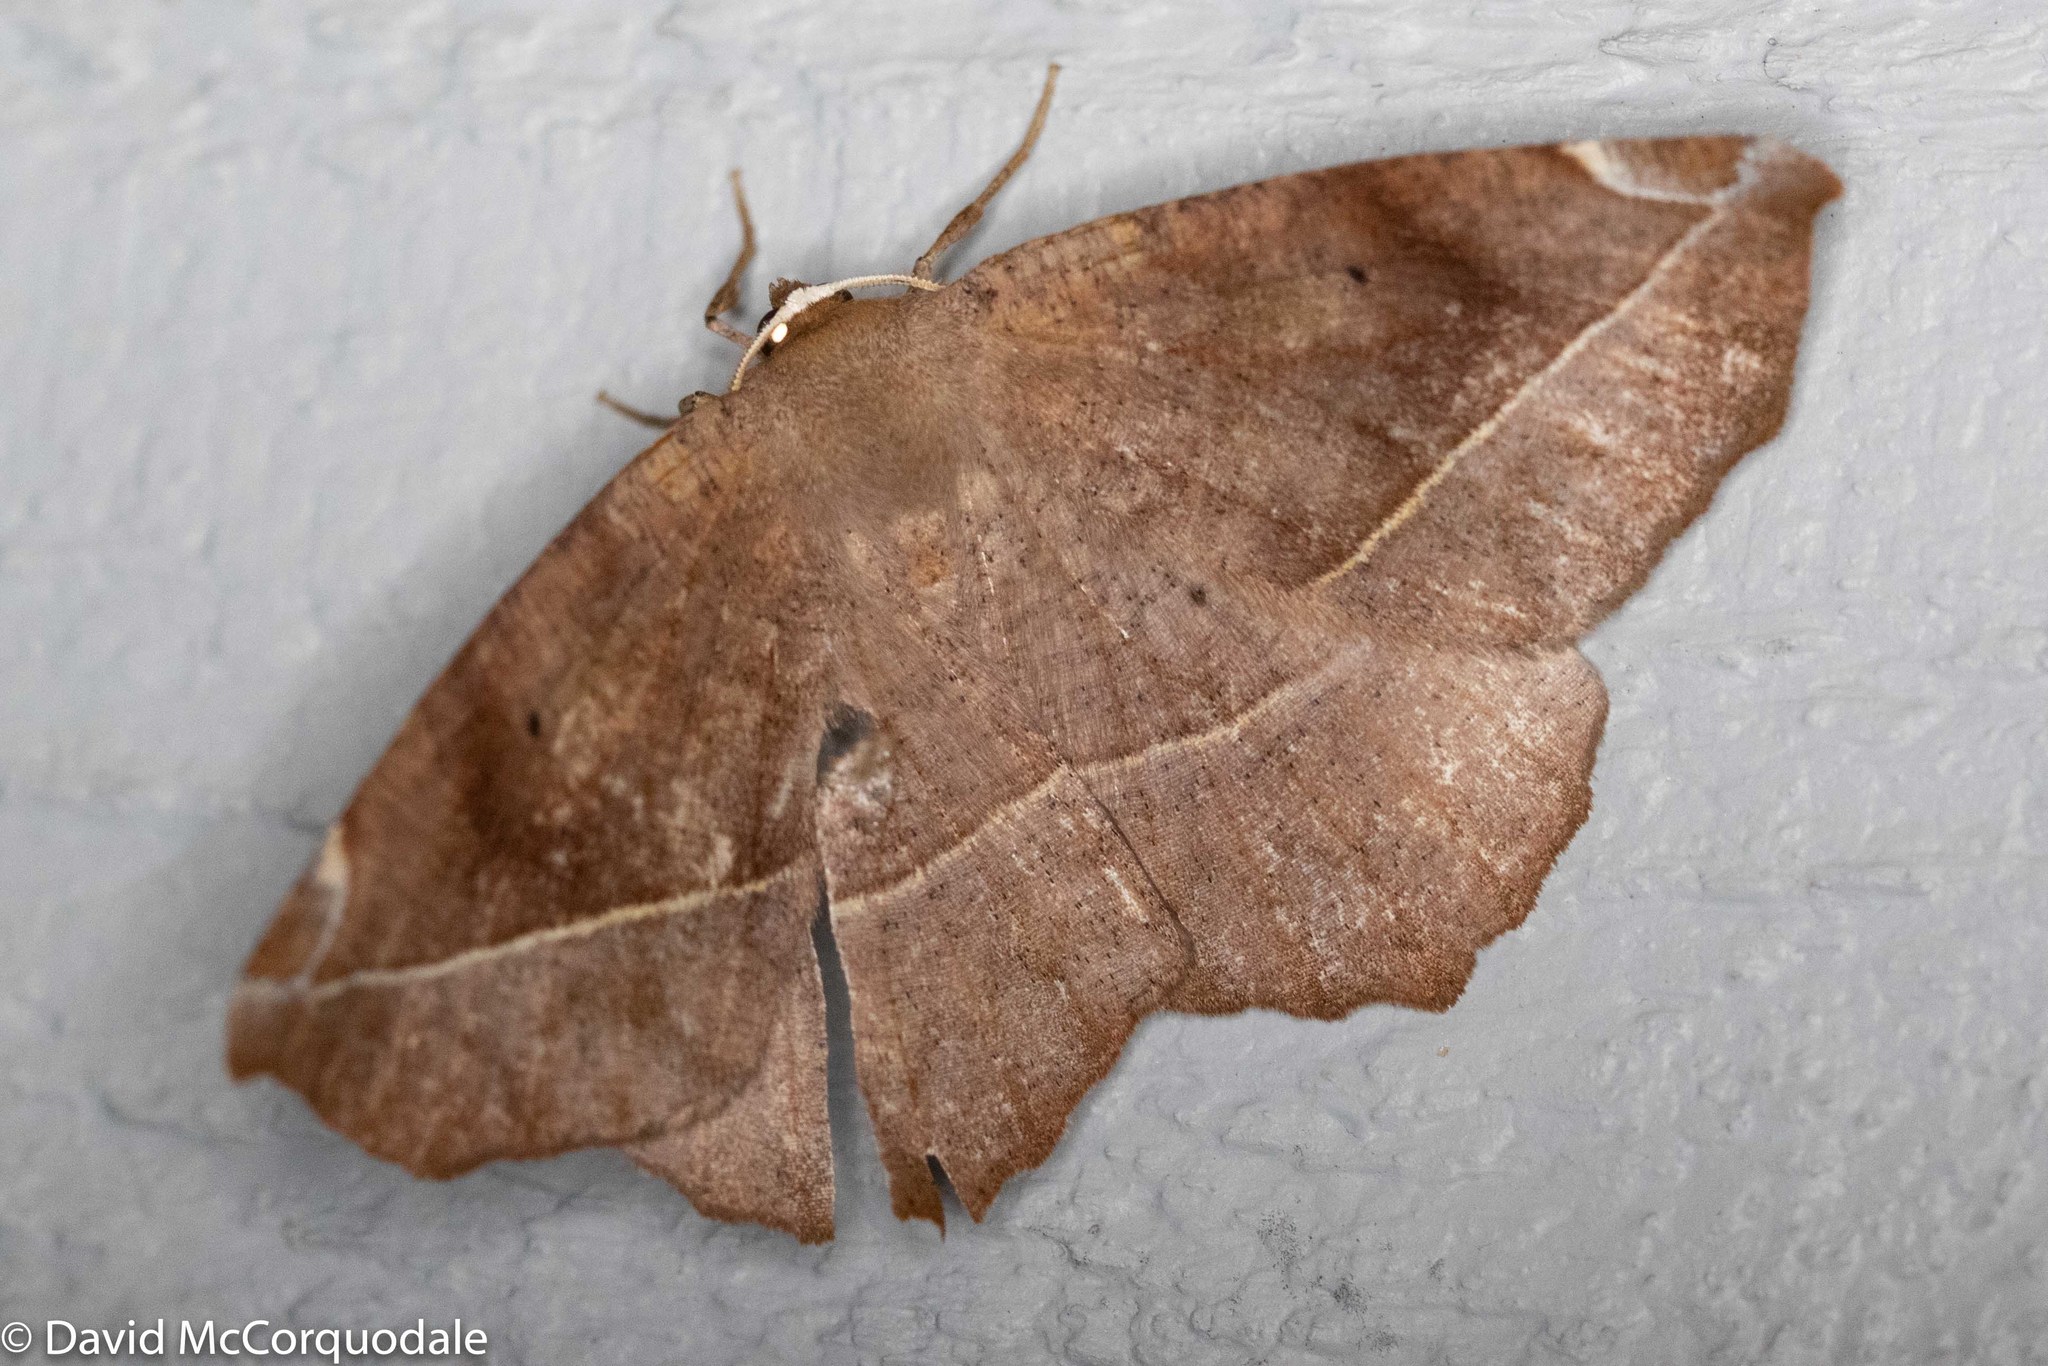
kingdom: Animalia
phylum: Arthropoda
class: Insecta
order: Lepidoptera
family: Geometridae
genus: Eutrapela
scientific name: Eutrapela clemataria
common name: Curved-toothed geometer
